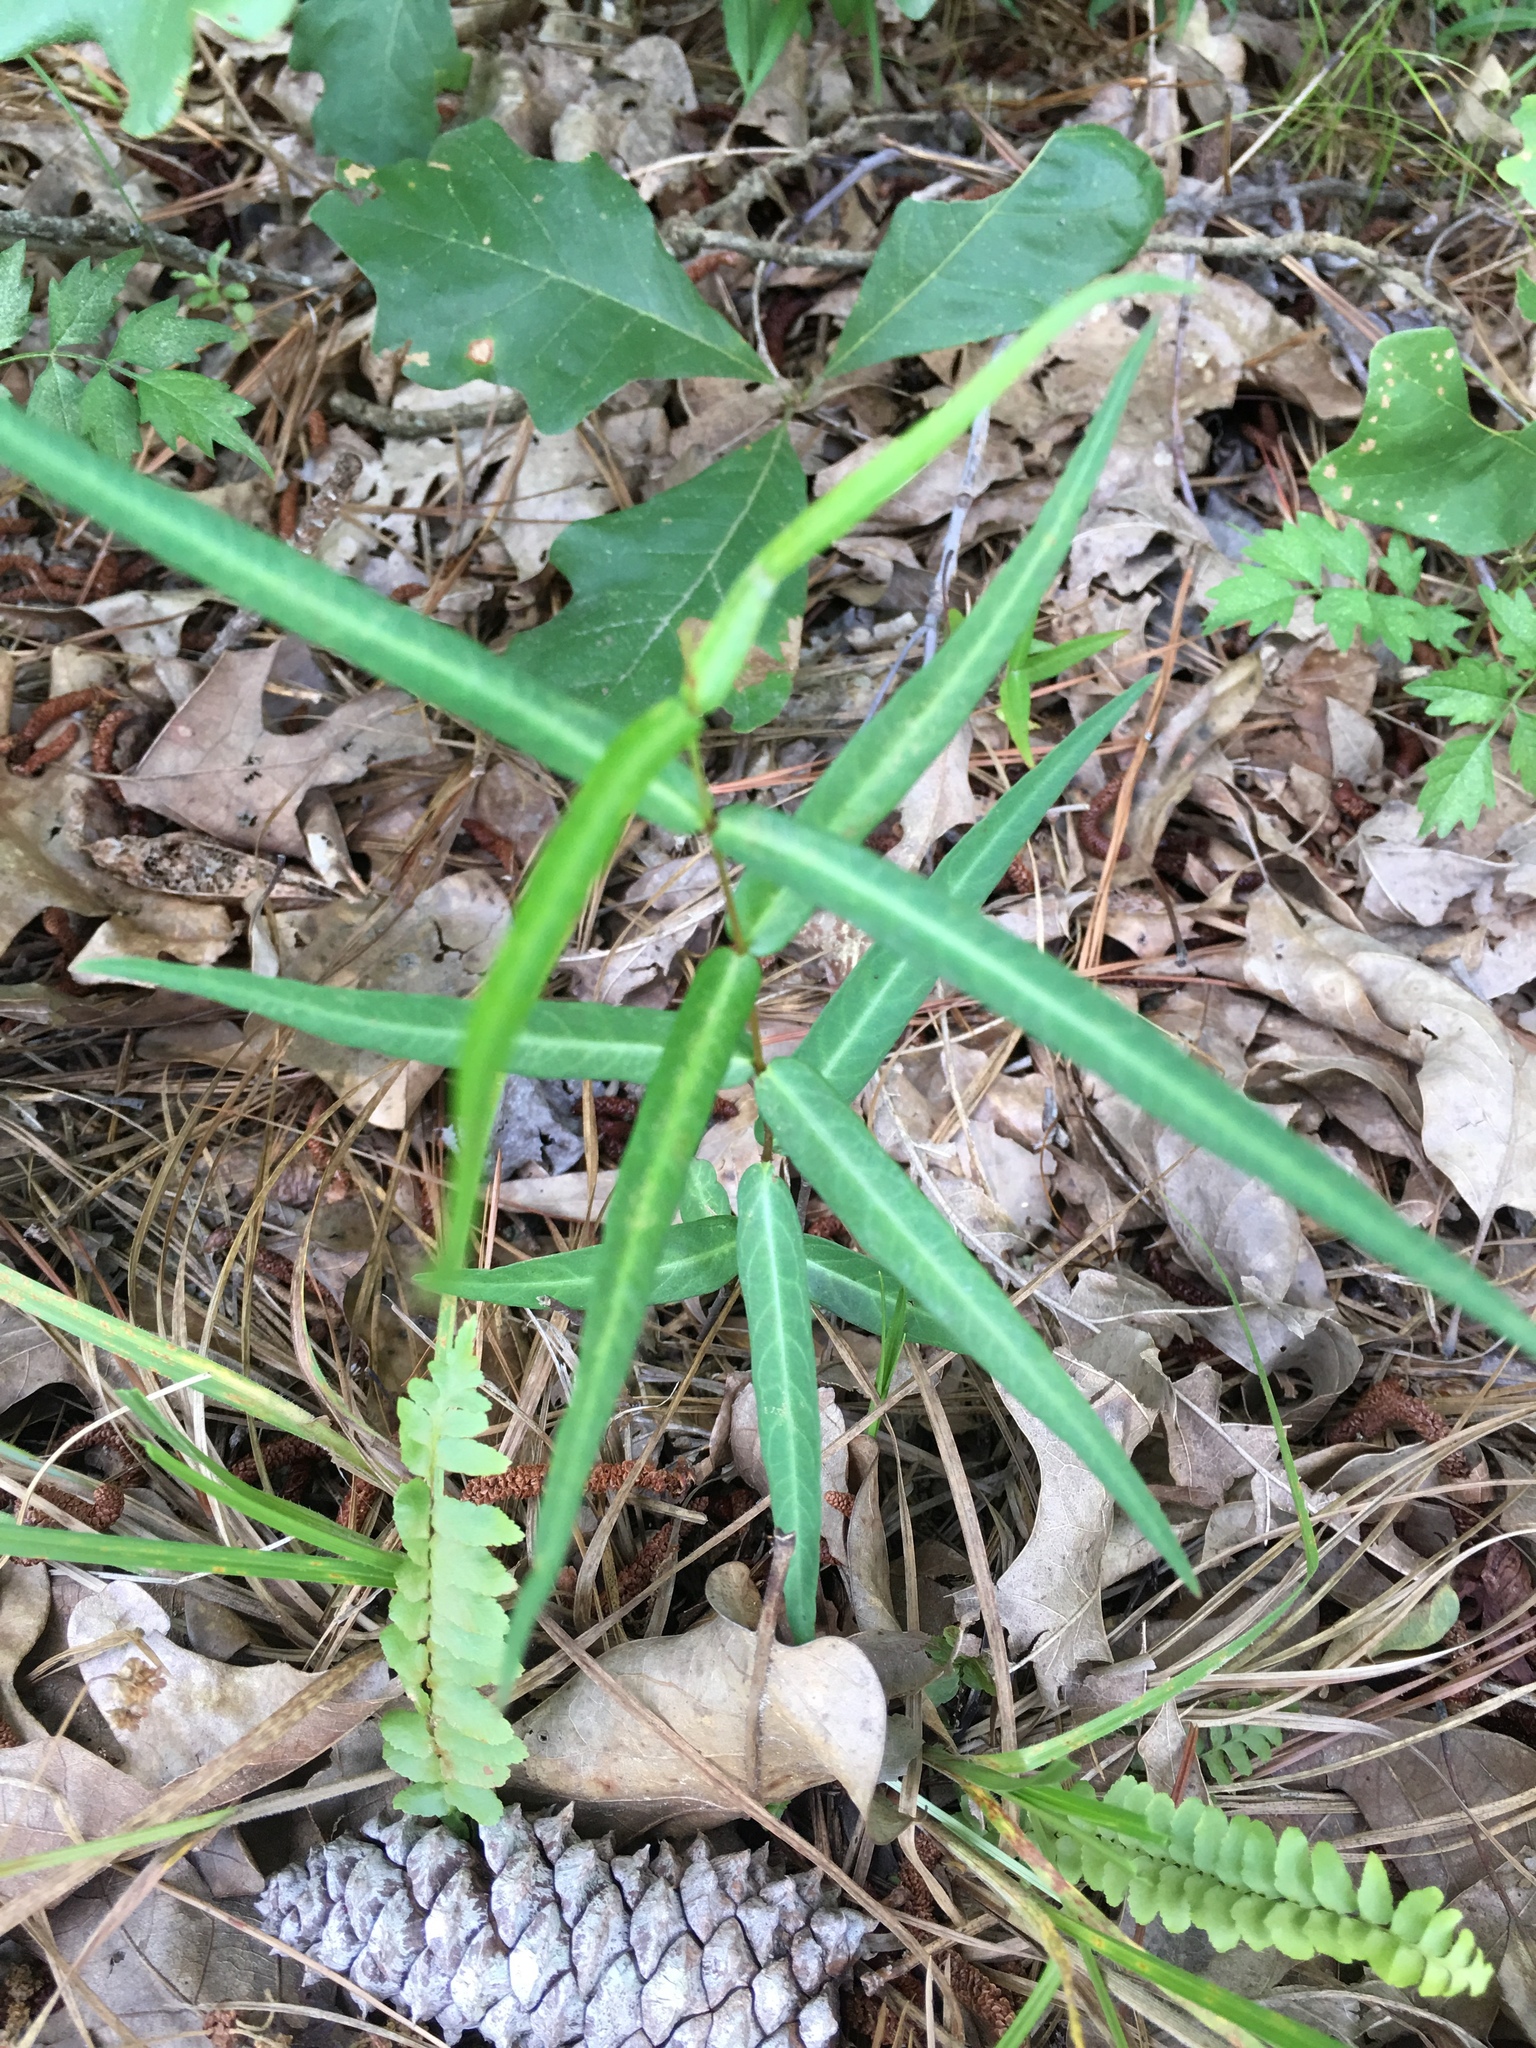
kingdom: Plantae
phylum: Tracheophyta
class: Magnoliopsida
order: Gentianales
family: Apocynaceae
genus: Thyrsanthella
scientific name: Thyrsanthella difformis
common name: Climbing dogbane
